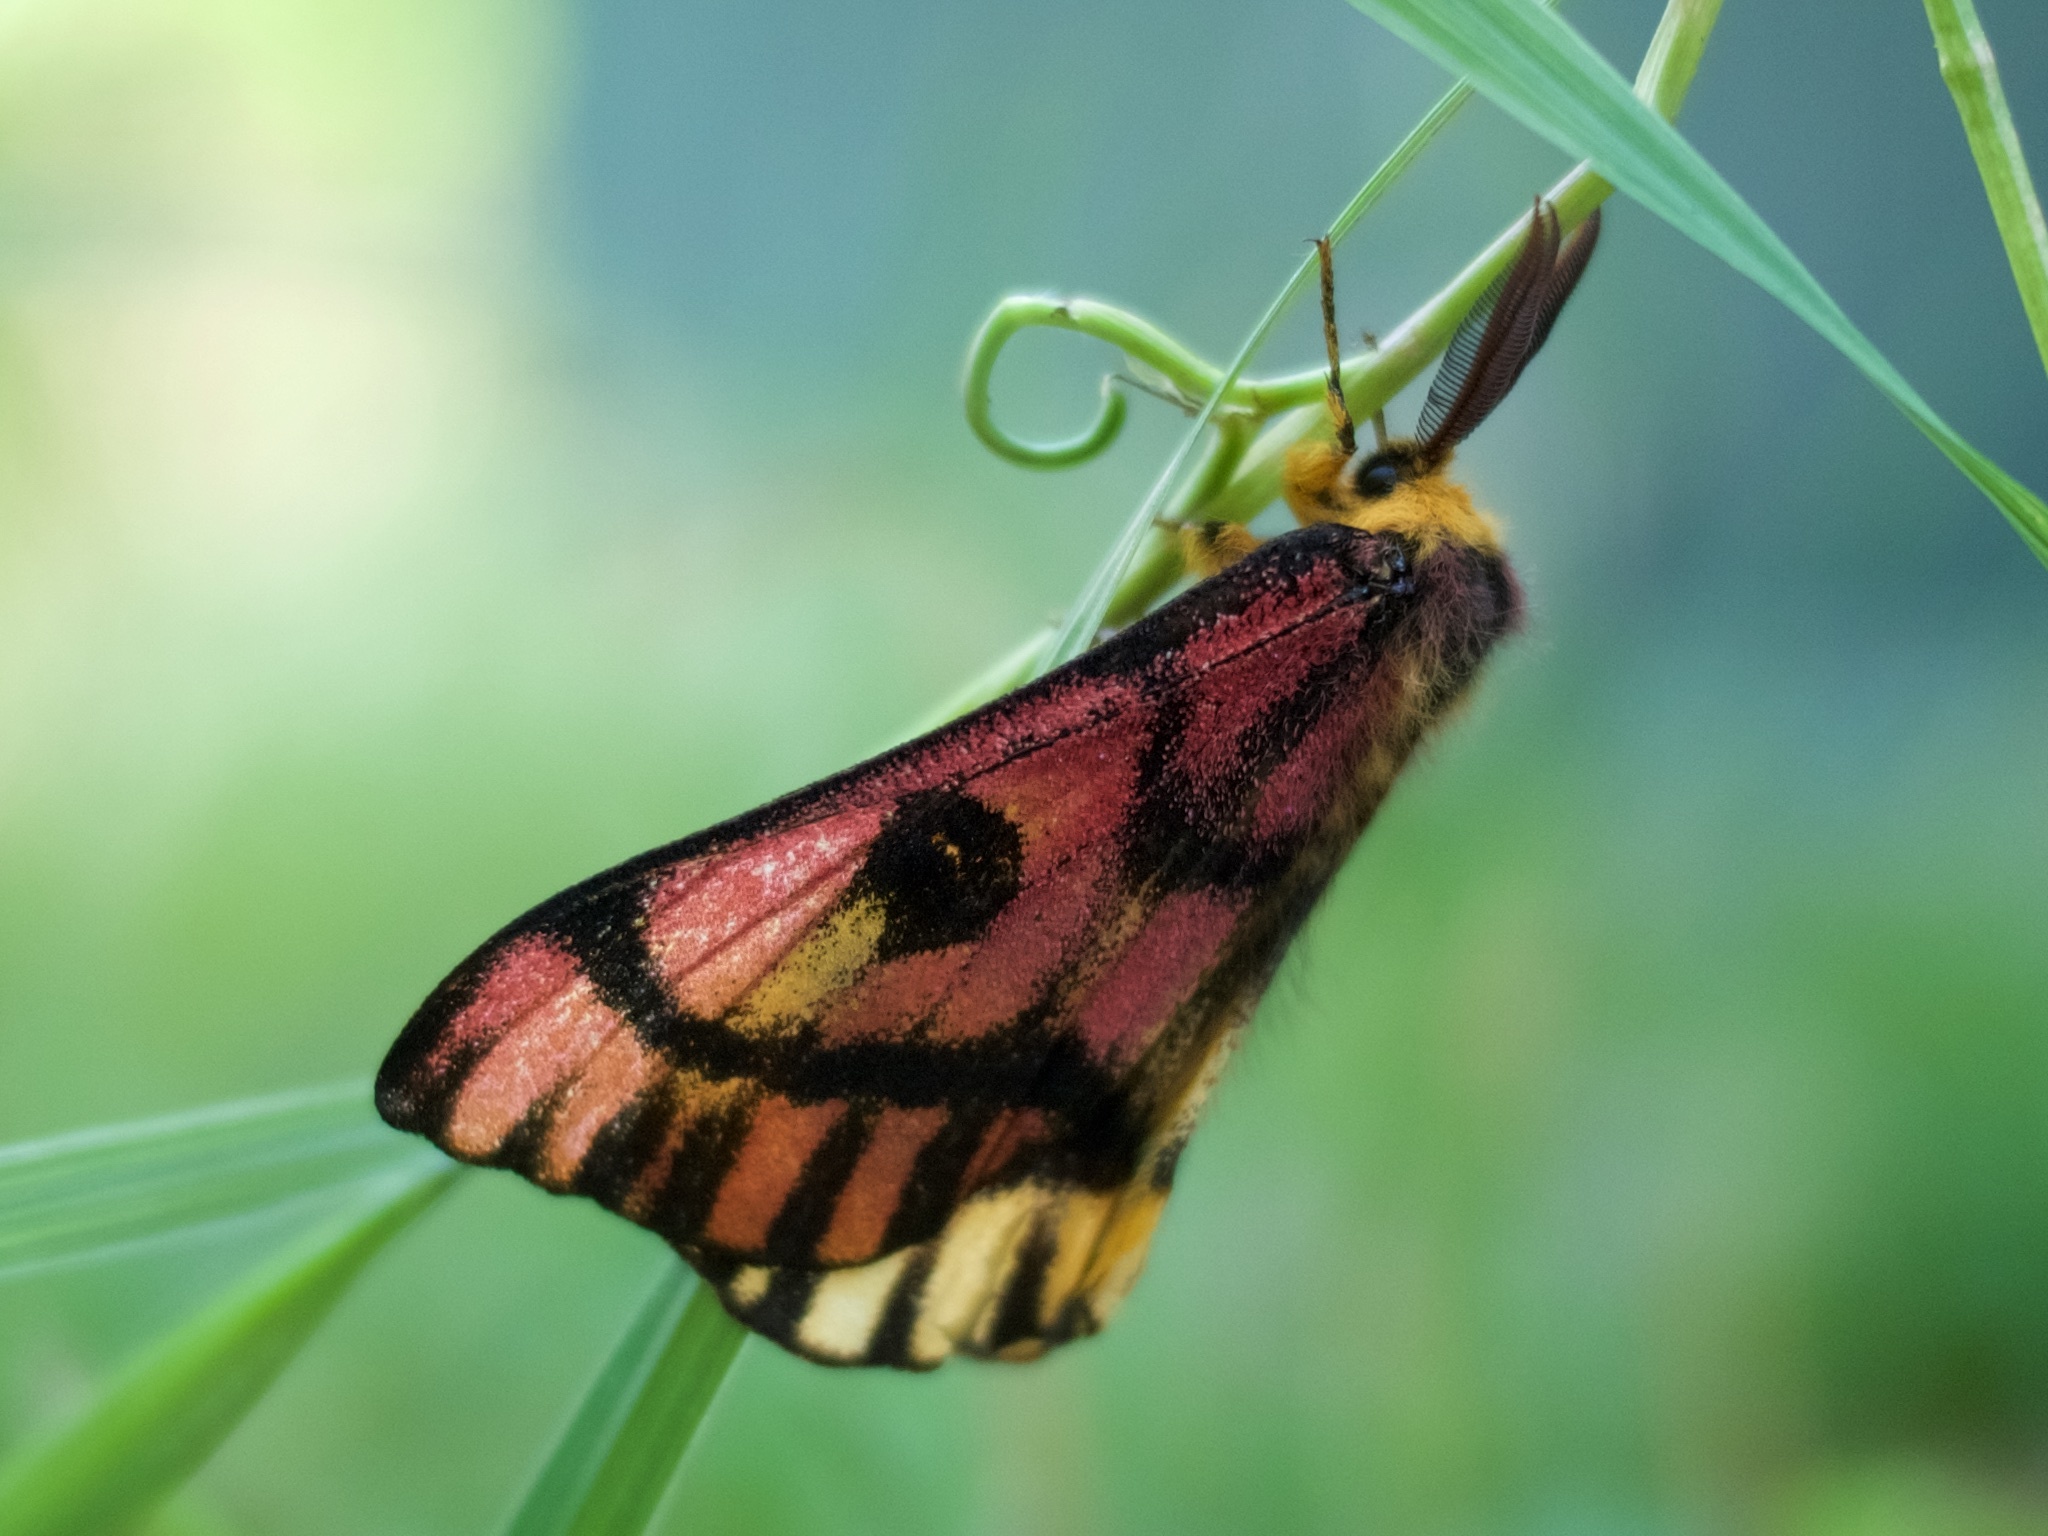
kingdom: Animalia
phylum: Arthropoda
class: Insecta
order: Lepidoptera
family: Saturniidae
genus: Hemileuca
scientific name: Hemileuca eglanterina
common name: Western sheepmoth
